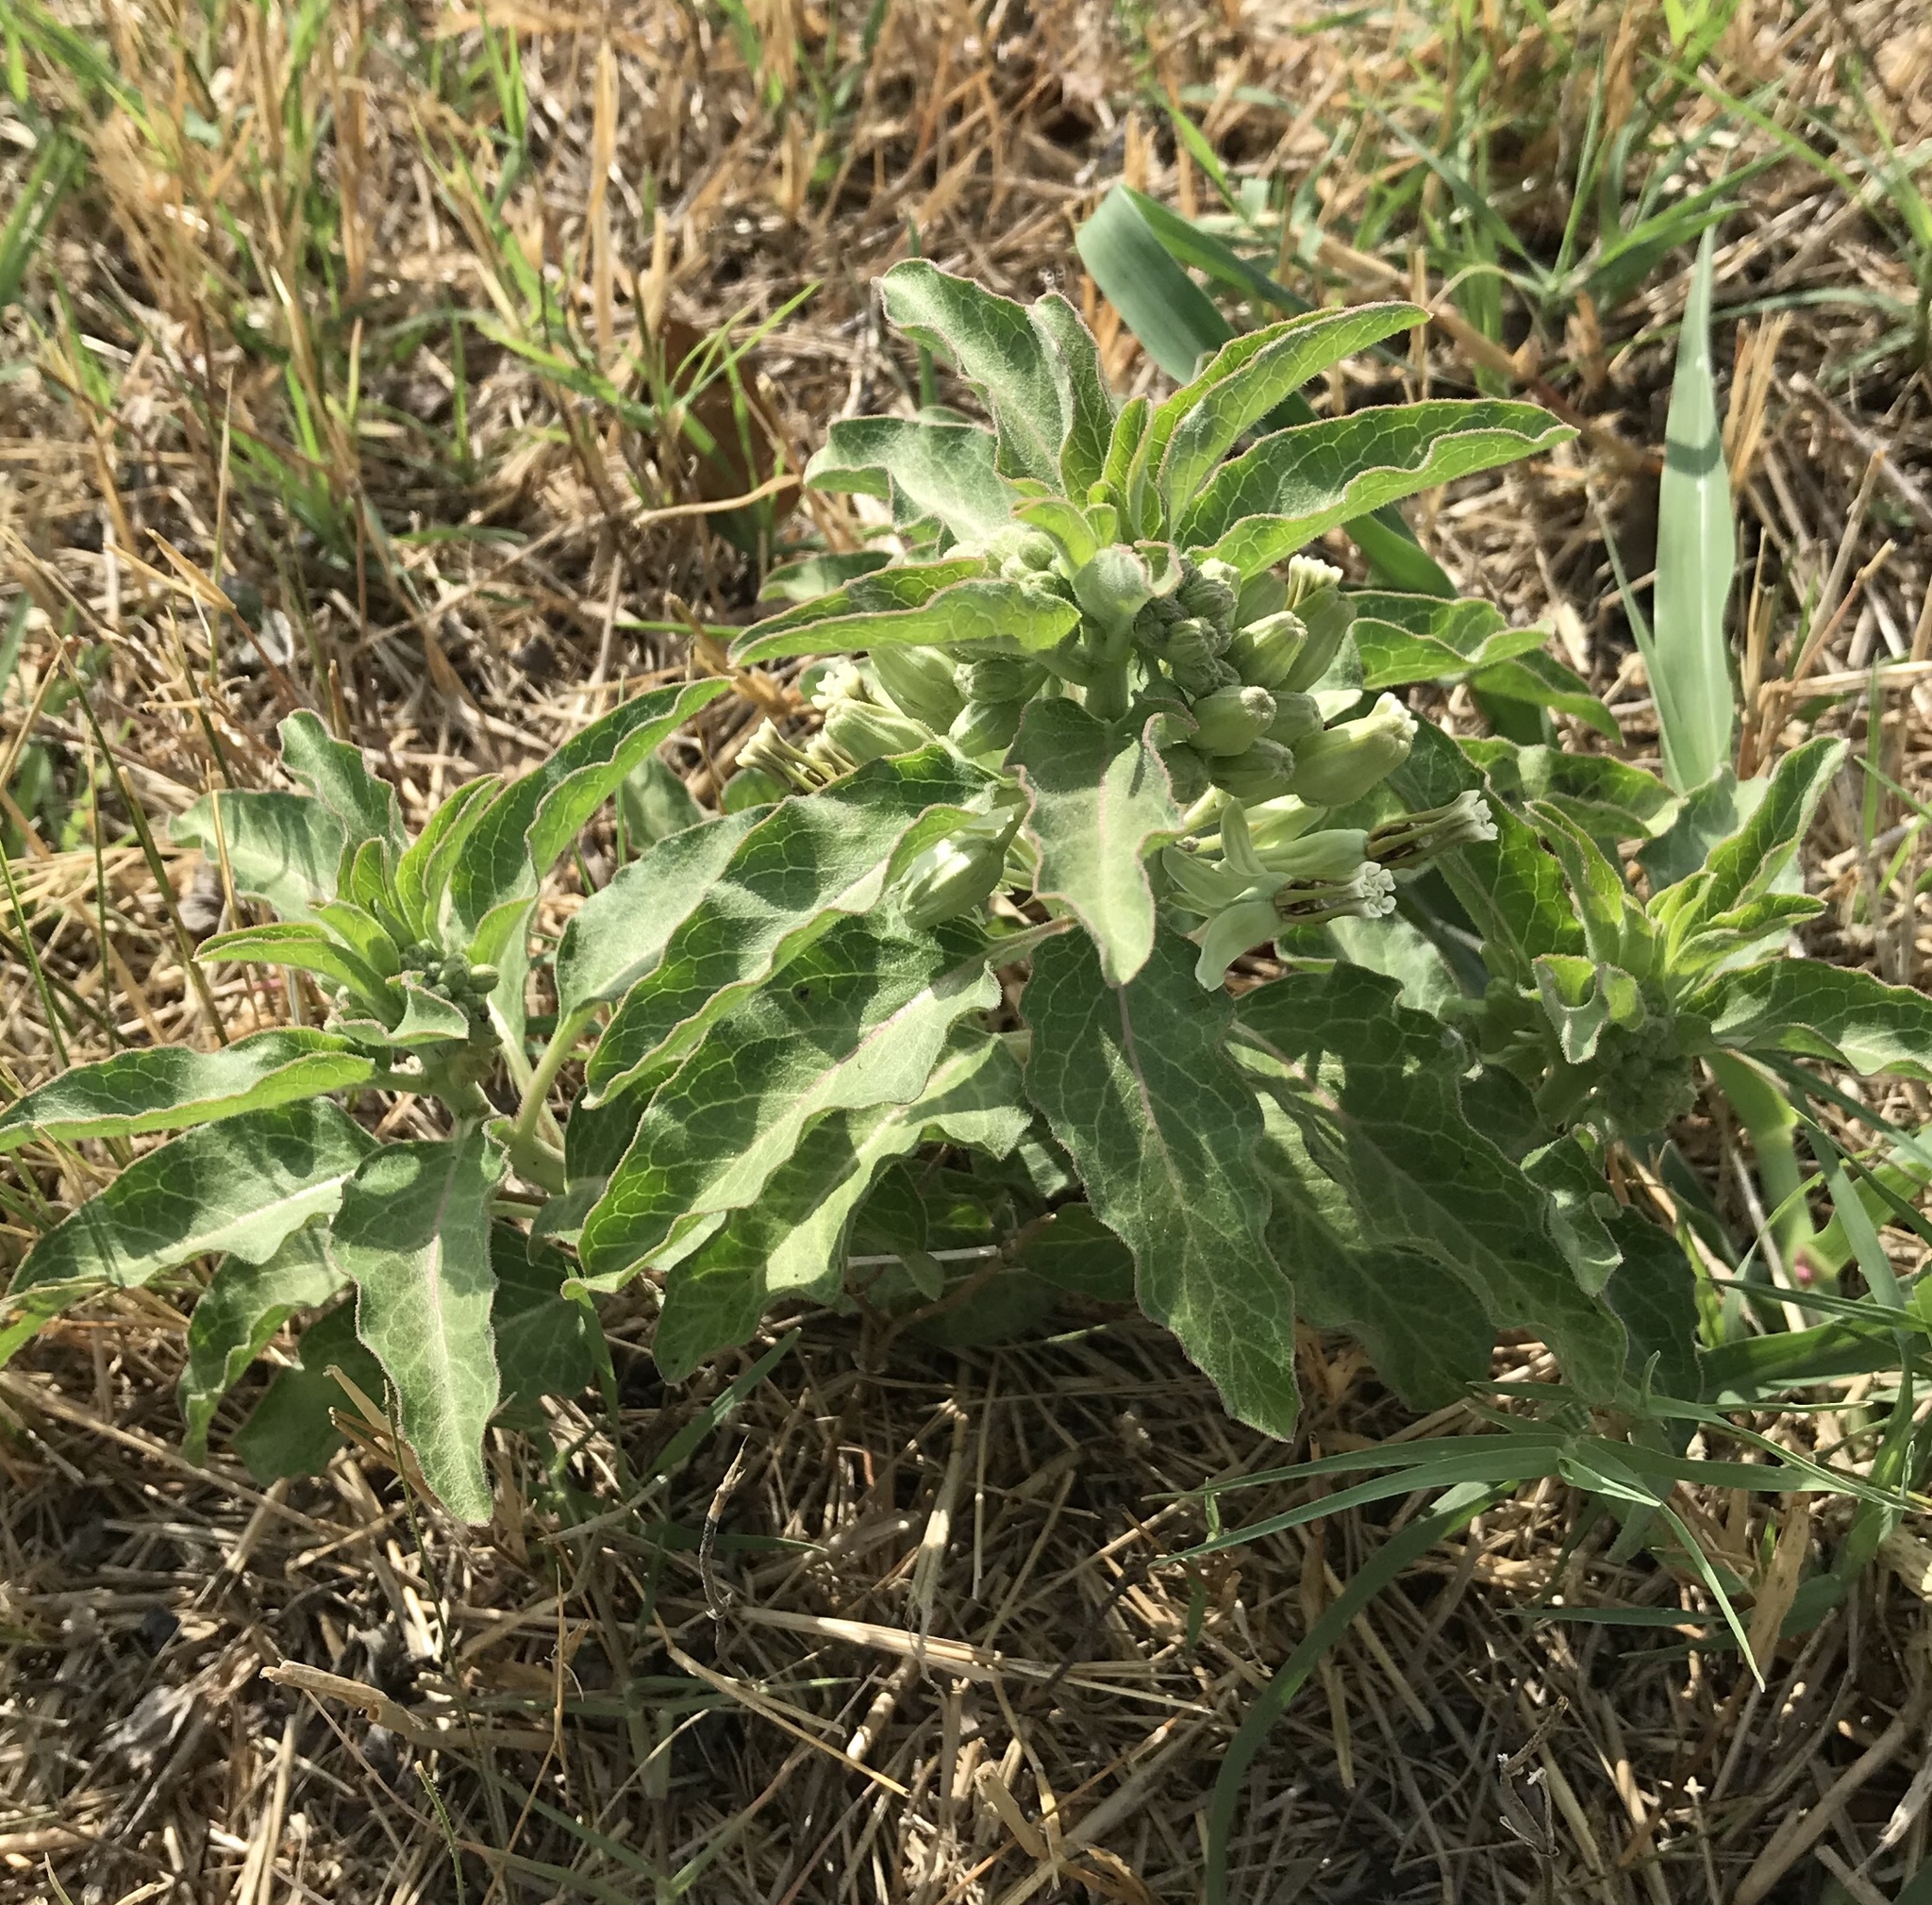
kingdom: Plantae
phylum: Tracheophyta
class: Magnoliopsida
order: Gentianales
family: Apocynaceae
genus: Asclepias
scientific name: Asclepias oenotheroides
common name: Zizotes milkweed
